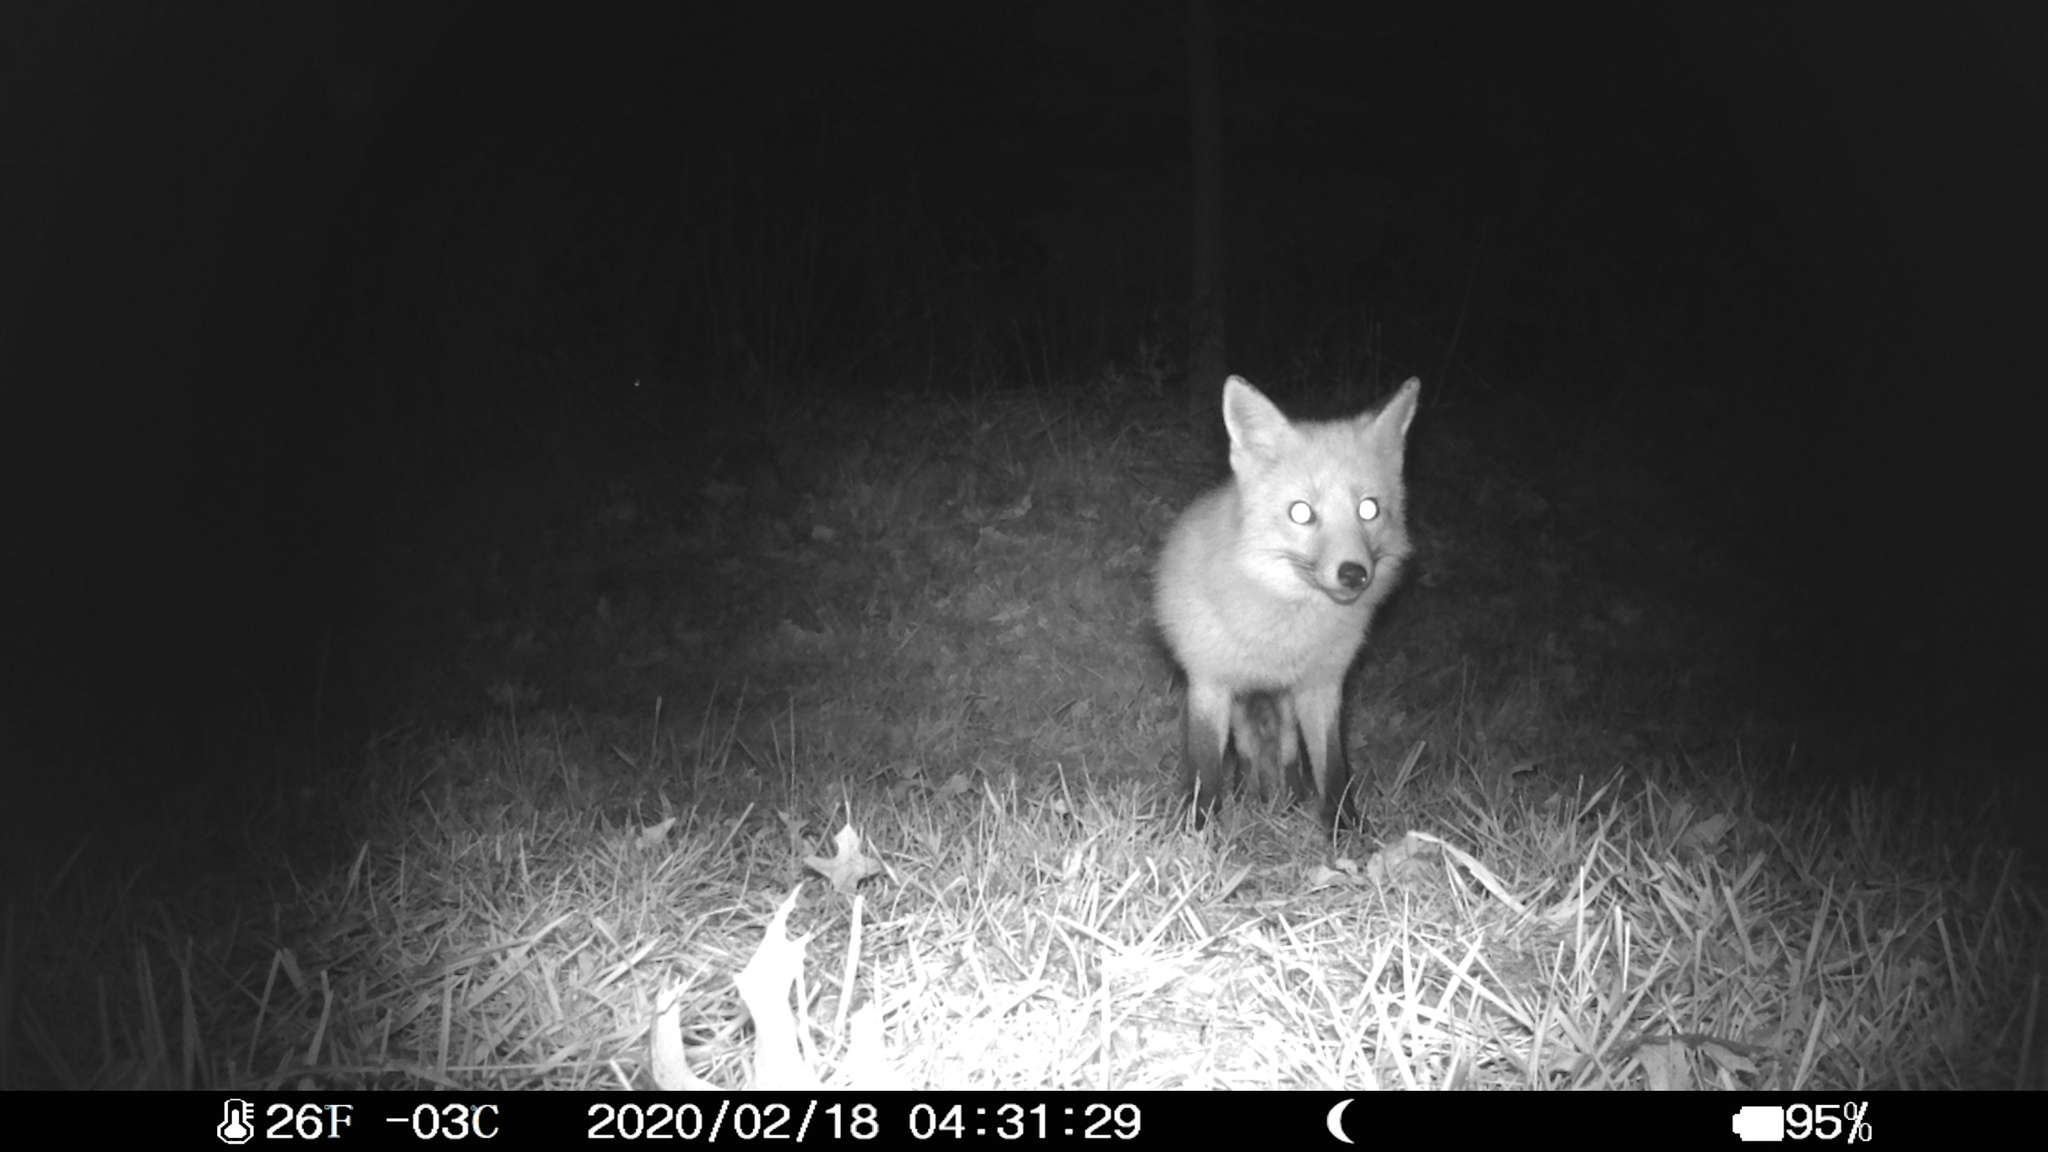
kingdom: Animalia
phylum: Chordata
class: Mammalia
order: Carnivora
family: Canidae
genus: Vulpes
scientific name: Vulpes vulpes
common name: Red fox
